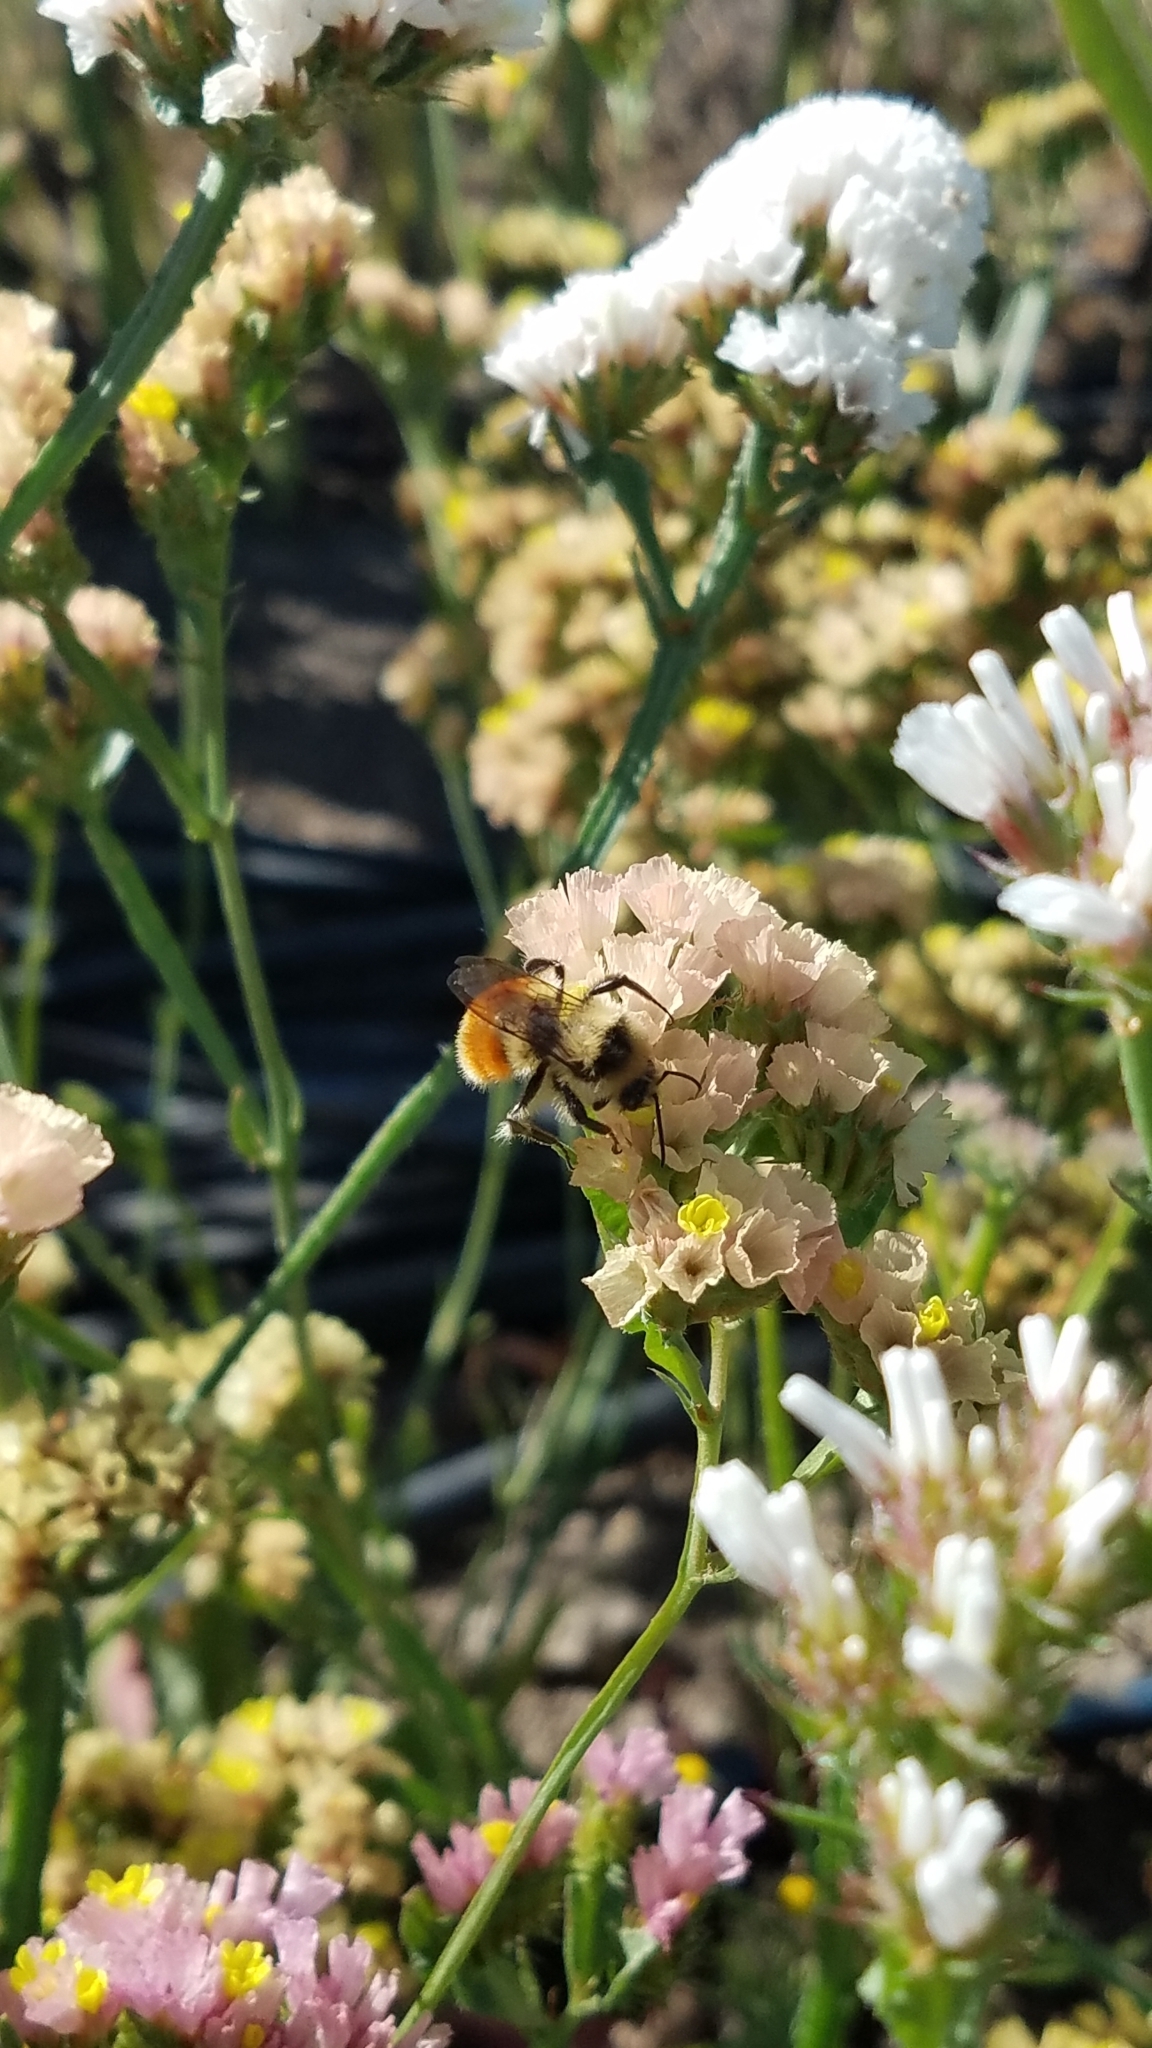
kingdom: Animalia
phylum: Arthropoda
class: Insecta
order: Hymenoptera
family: Apidae
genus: Bombus
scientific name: Bombus huntii
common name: Hunt bumble bee
